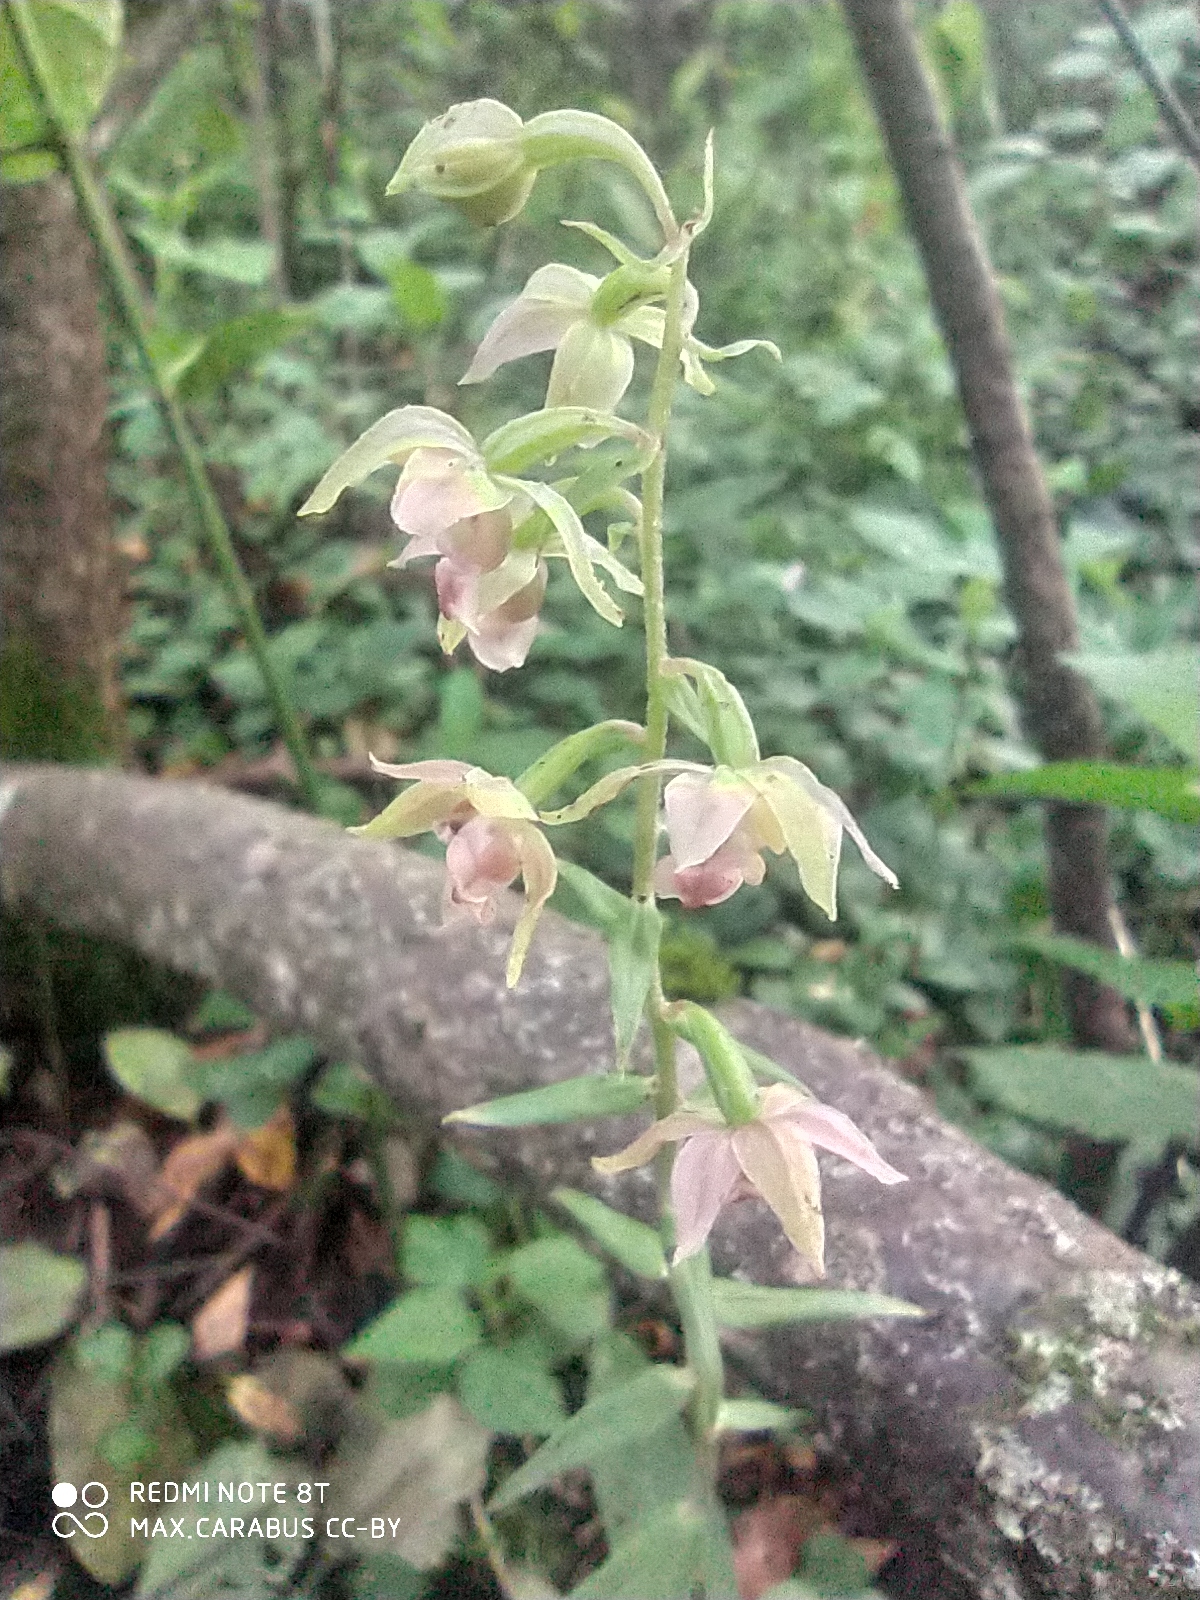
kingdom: Plantae
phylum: Tracheophyta
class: Liliopsida
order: Asparagales
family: Orchidaceae
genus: Epipactis
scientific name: Epipactis helleborine
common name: Broad-leaved helleborine
